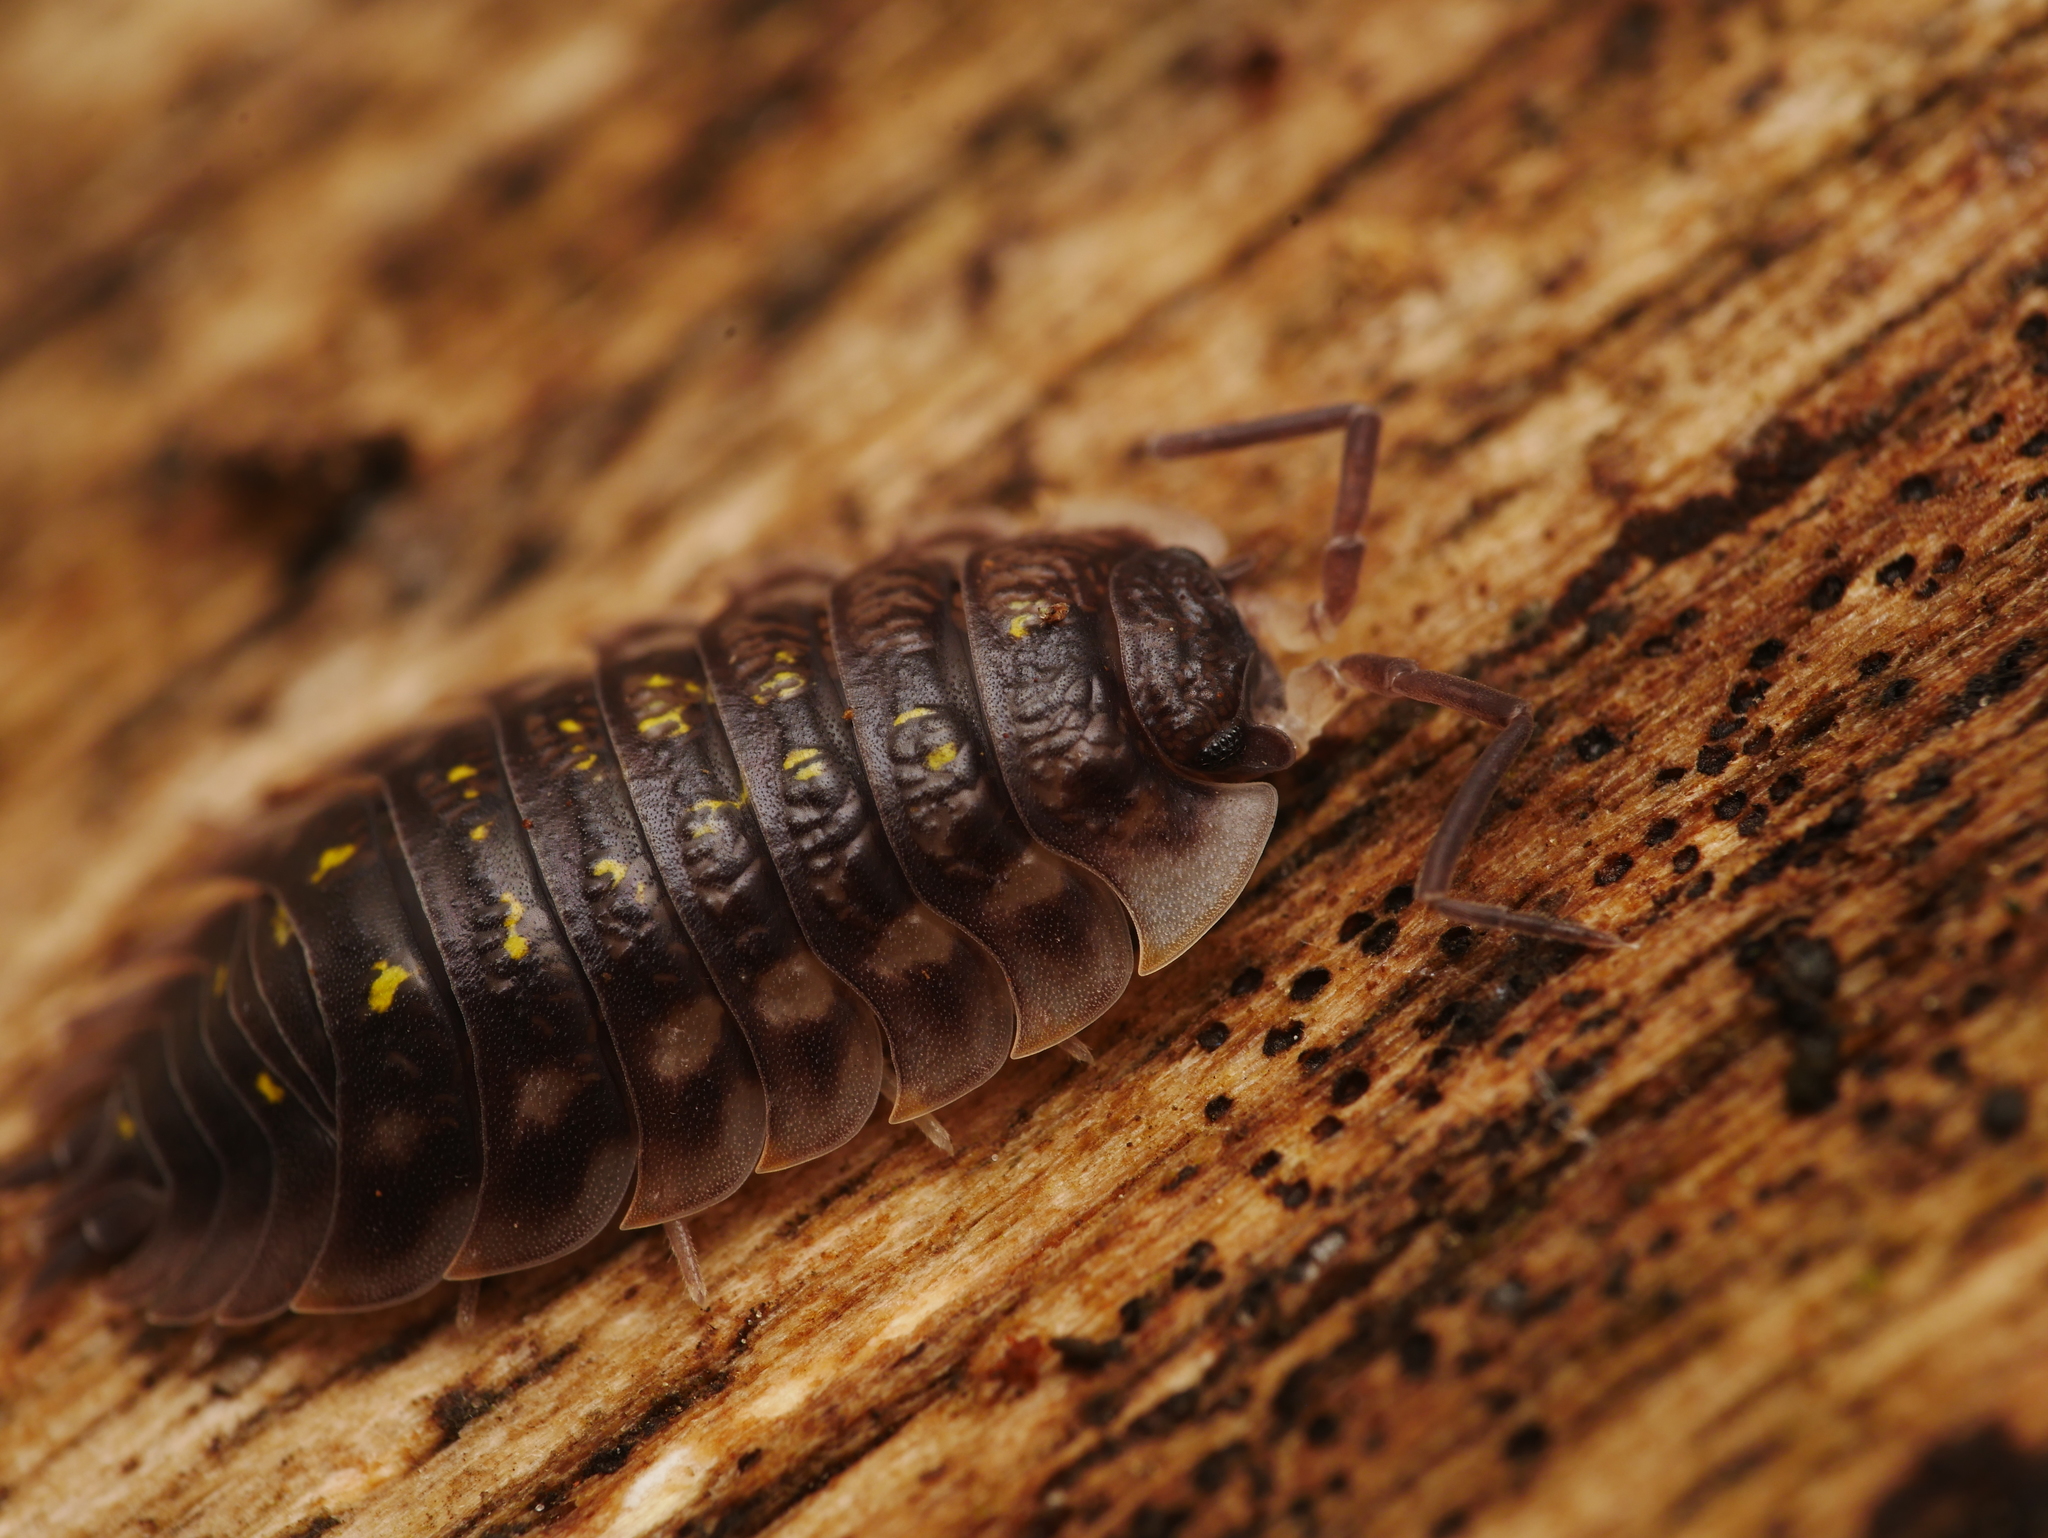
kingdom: Animalia
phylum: Arthropoda
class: Malacostraca
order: Isopoda
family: Oniscidae
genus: Oniscus
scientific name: Oniscus asellus
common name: Common shiny woodlouse
